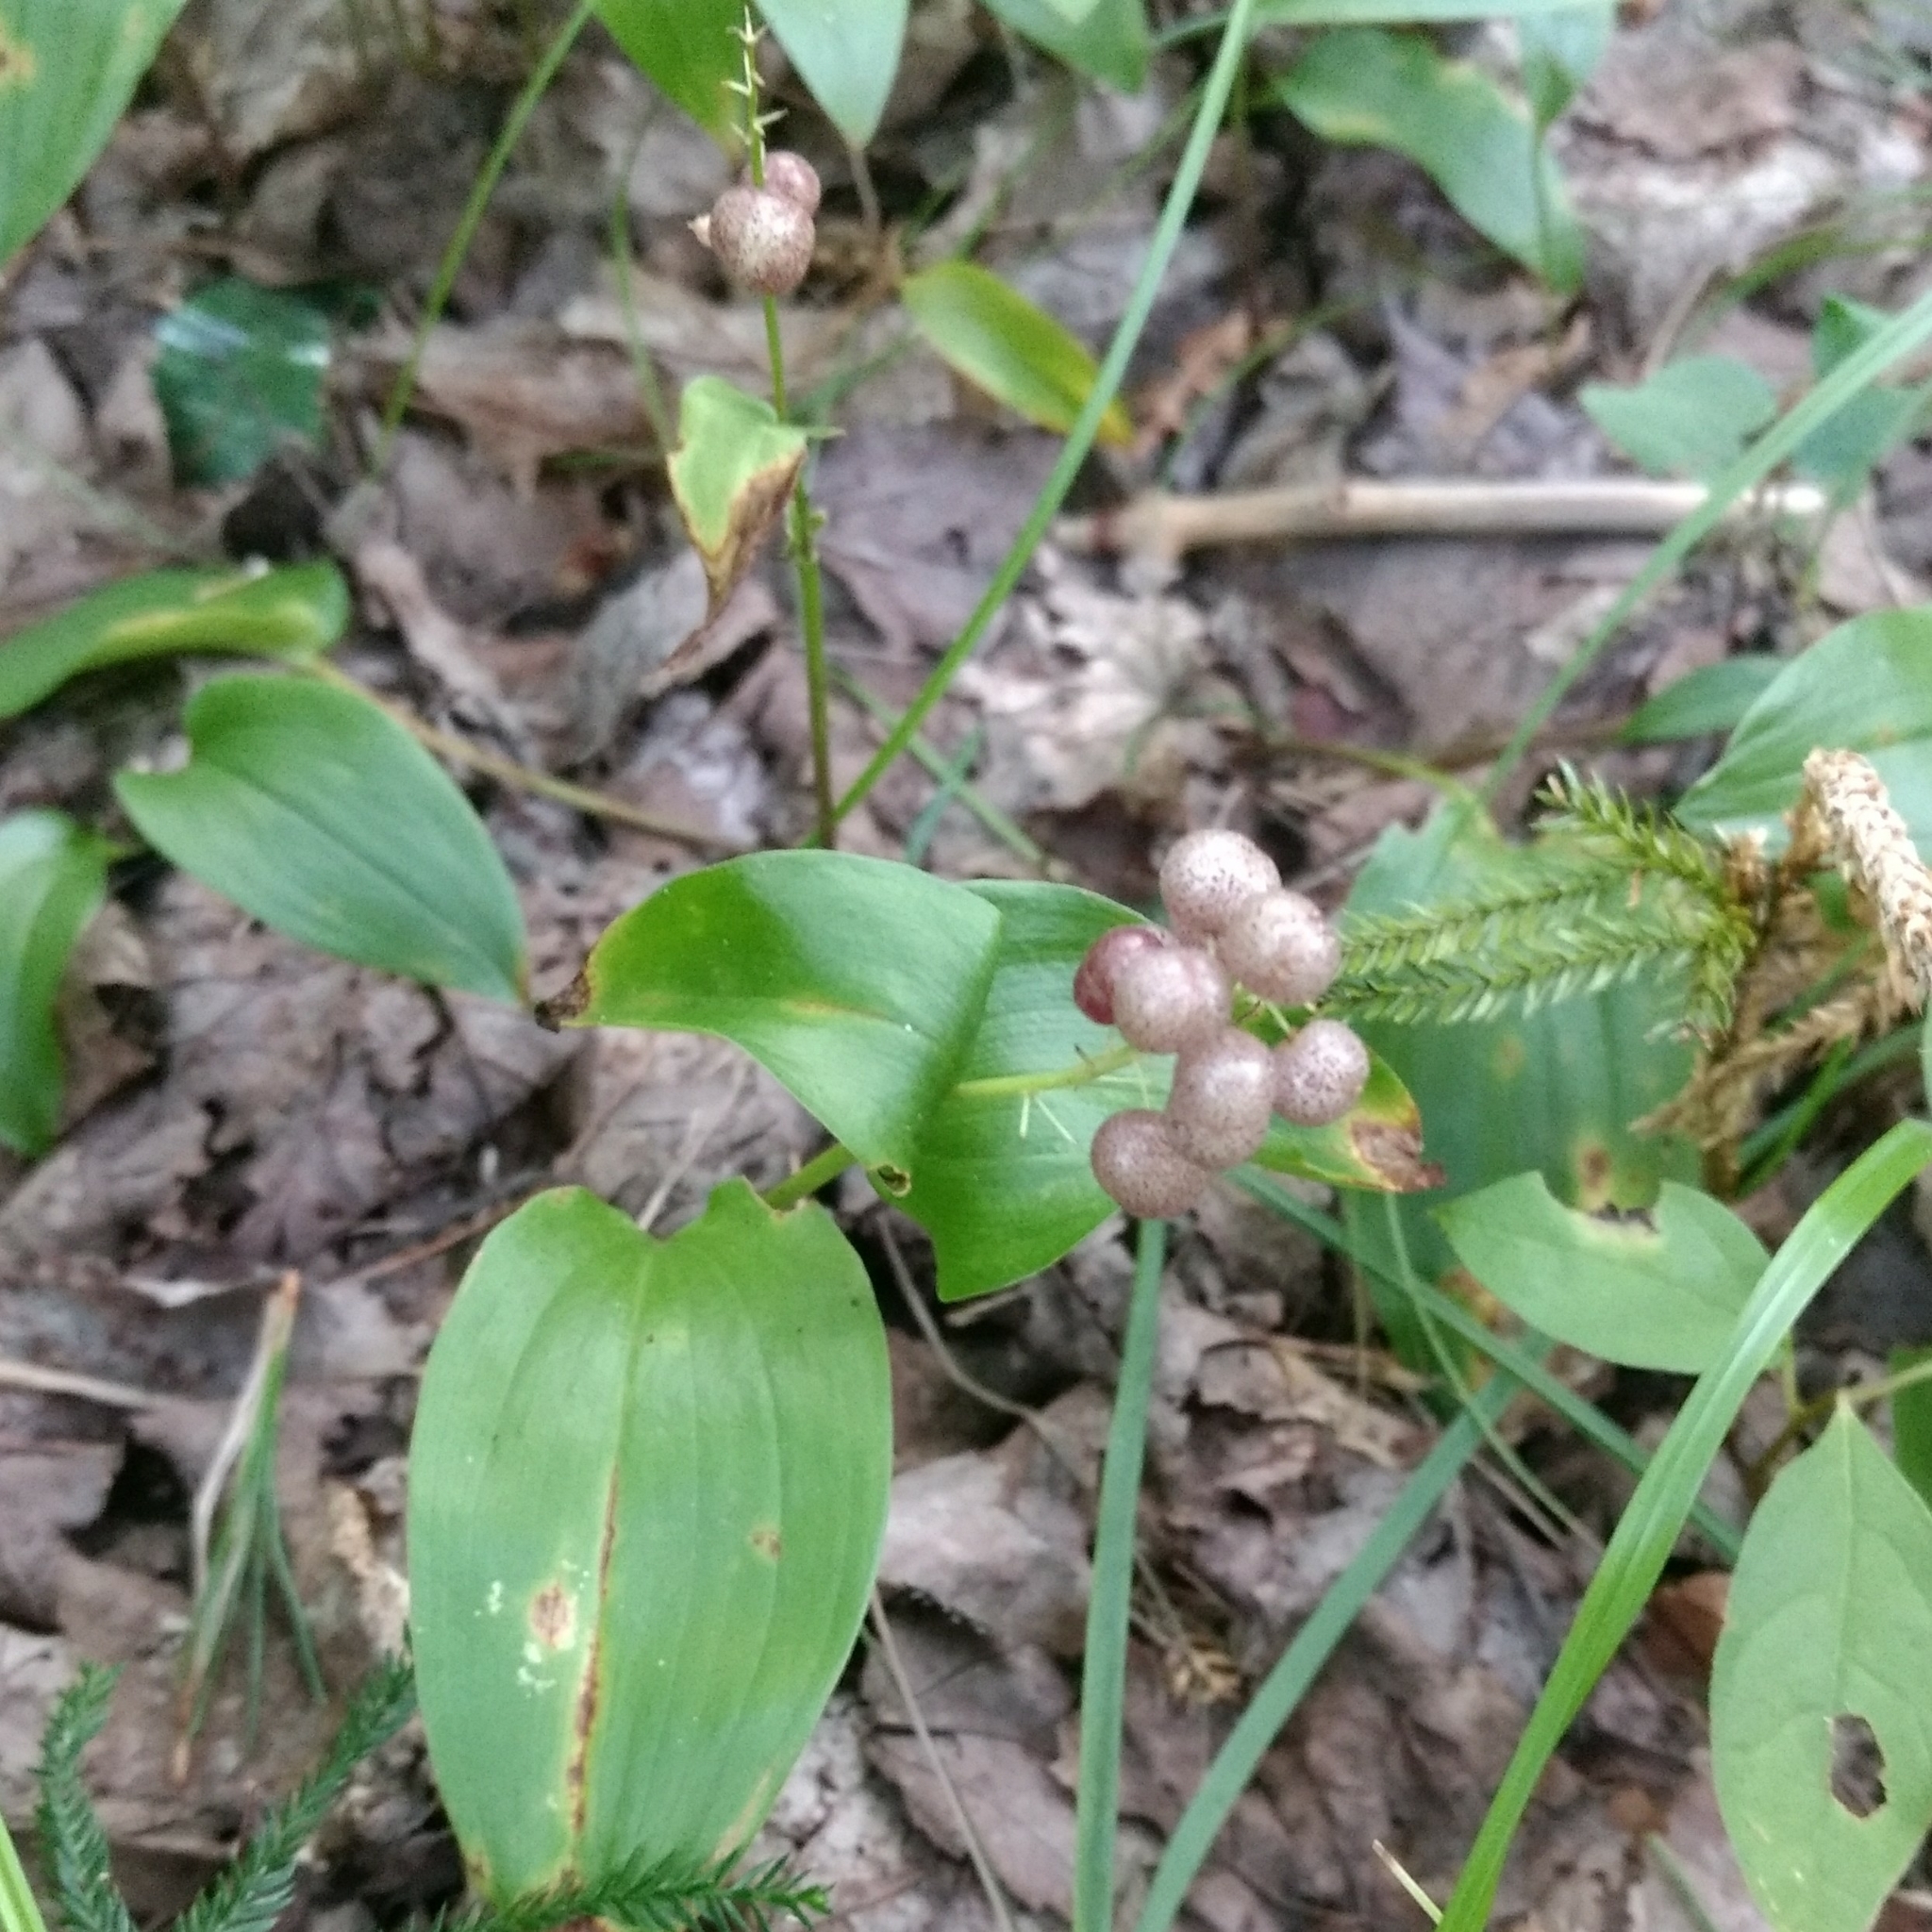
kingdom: Plantae
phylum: Tracheophyta
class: Liliopsida
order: Asparagales
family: Asparagaceae
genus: Maianthemum
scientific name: Maianthemum canadense
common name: False lily-of-the-valley
